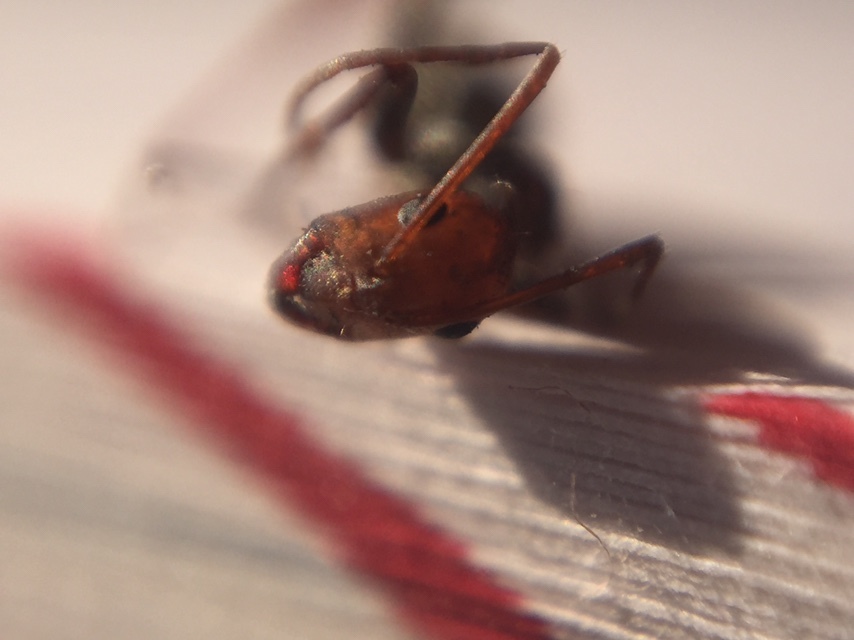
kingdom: Animalia
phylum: Arthropoda
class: Insecta
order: Hymenoptera
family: Formicidae
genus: Camponotus
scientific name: Camponotus rufoglaucus
